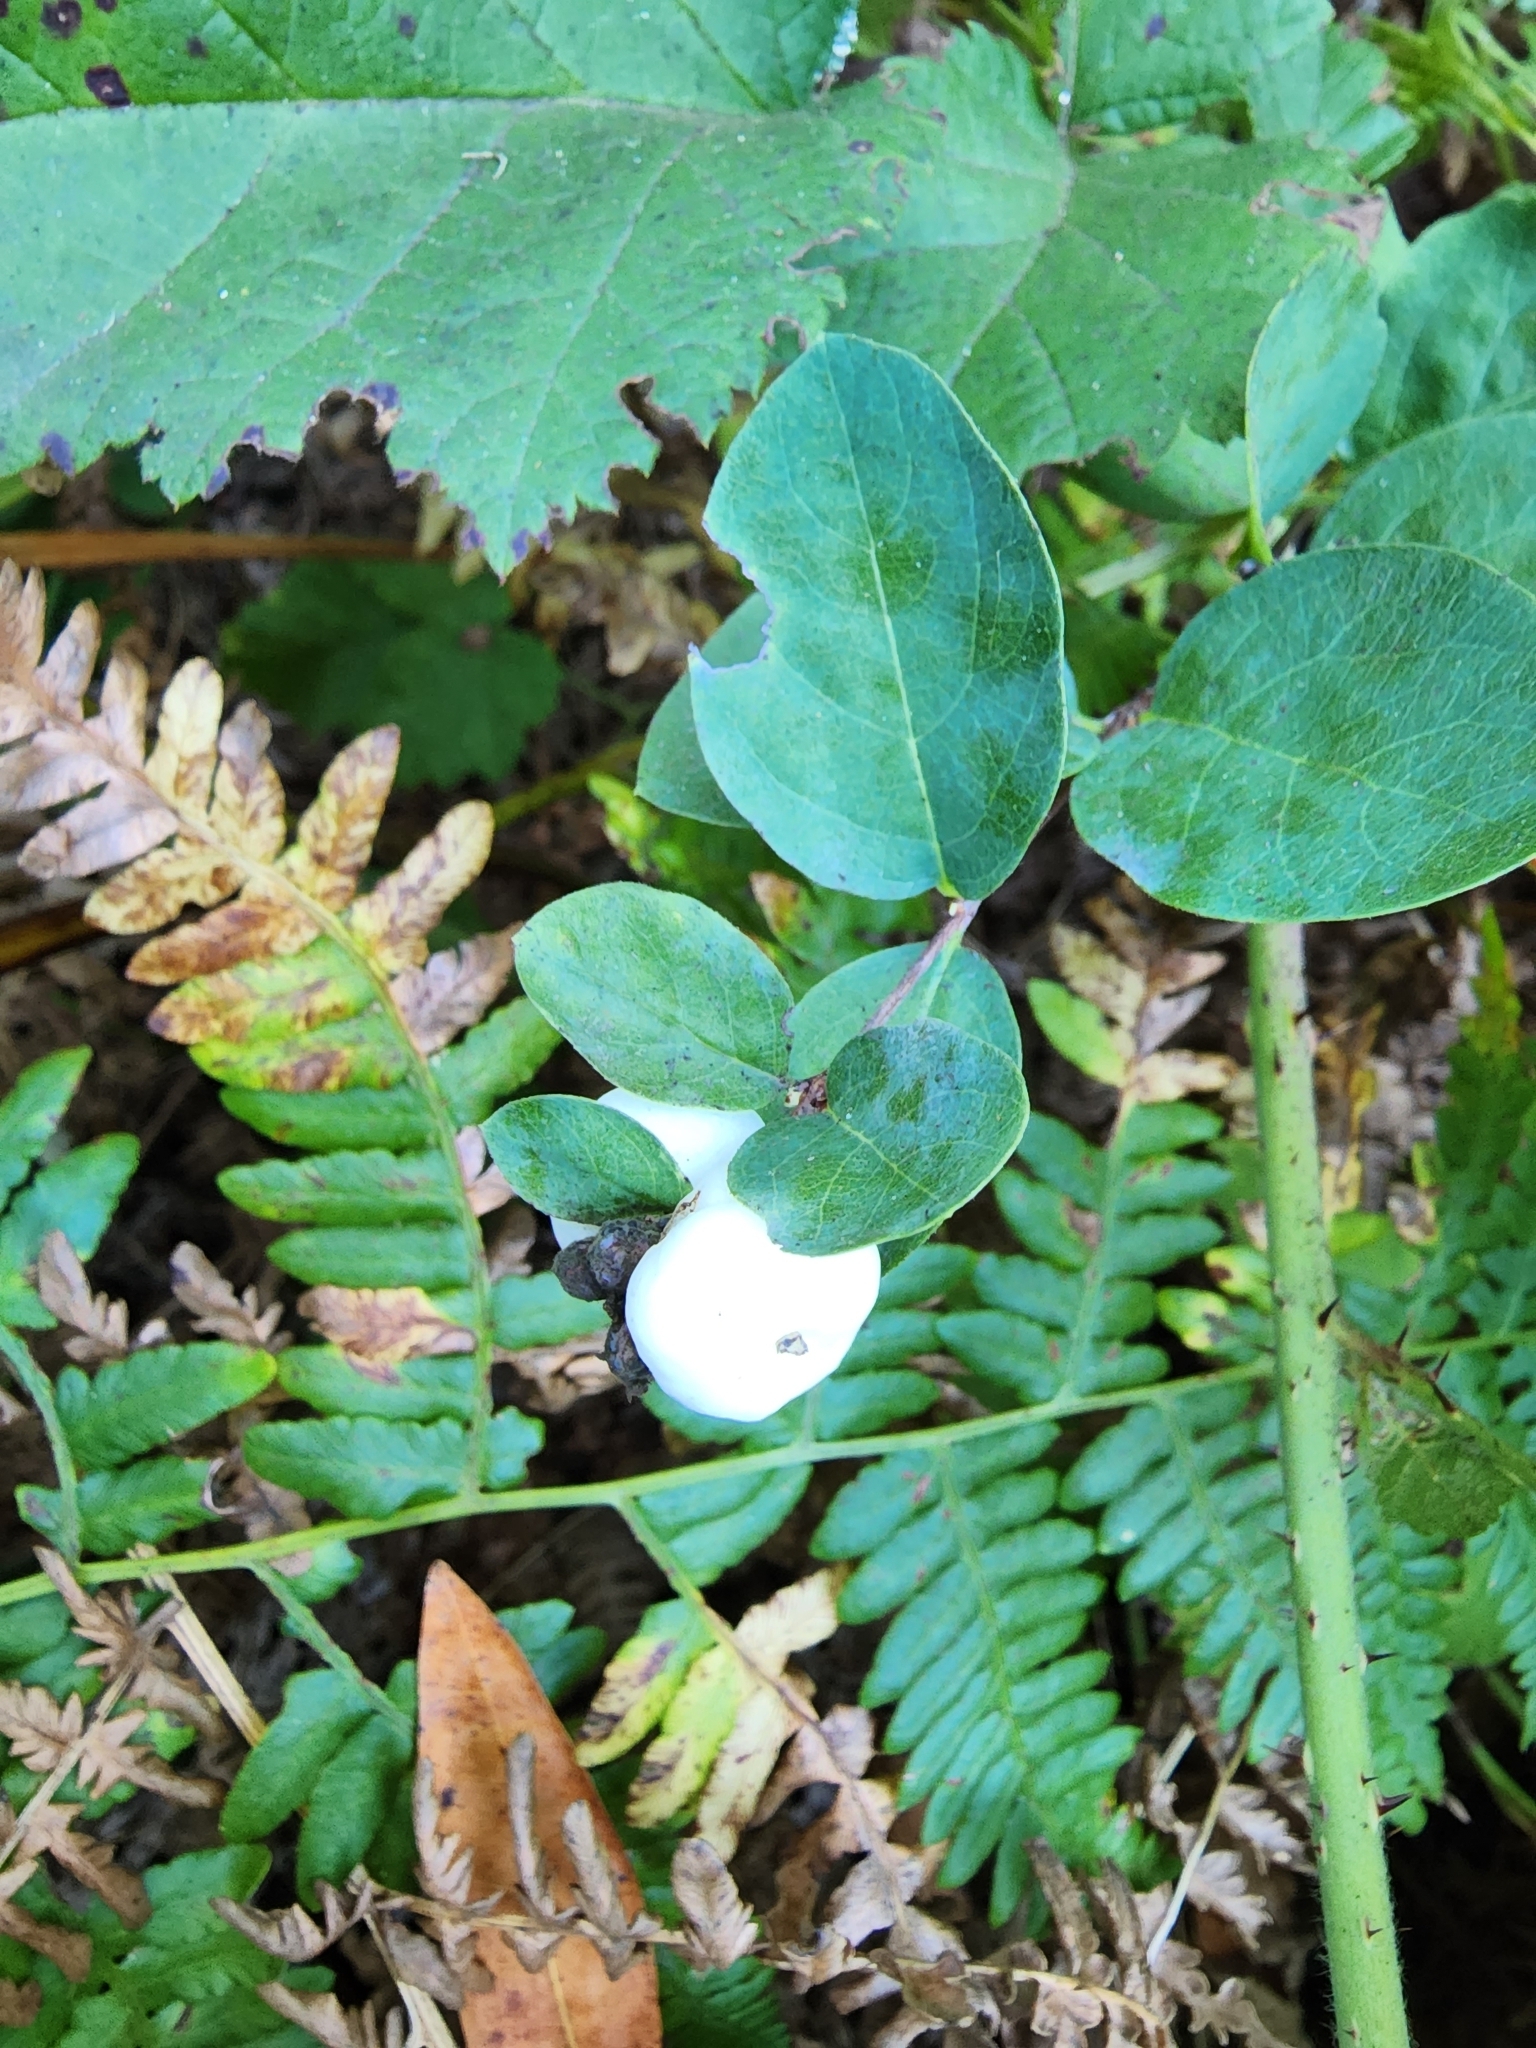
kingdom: Plantae
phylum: Tracheophyta
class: Magnoliopsida
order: Dipsacales
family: Caprifoliaceae
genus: Symphoricarpos
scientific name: Symphoricarpos albus
